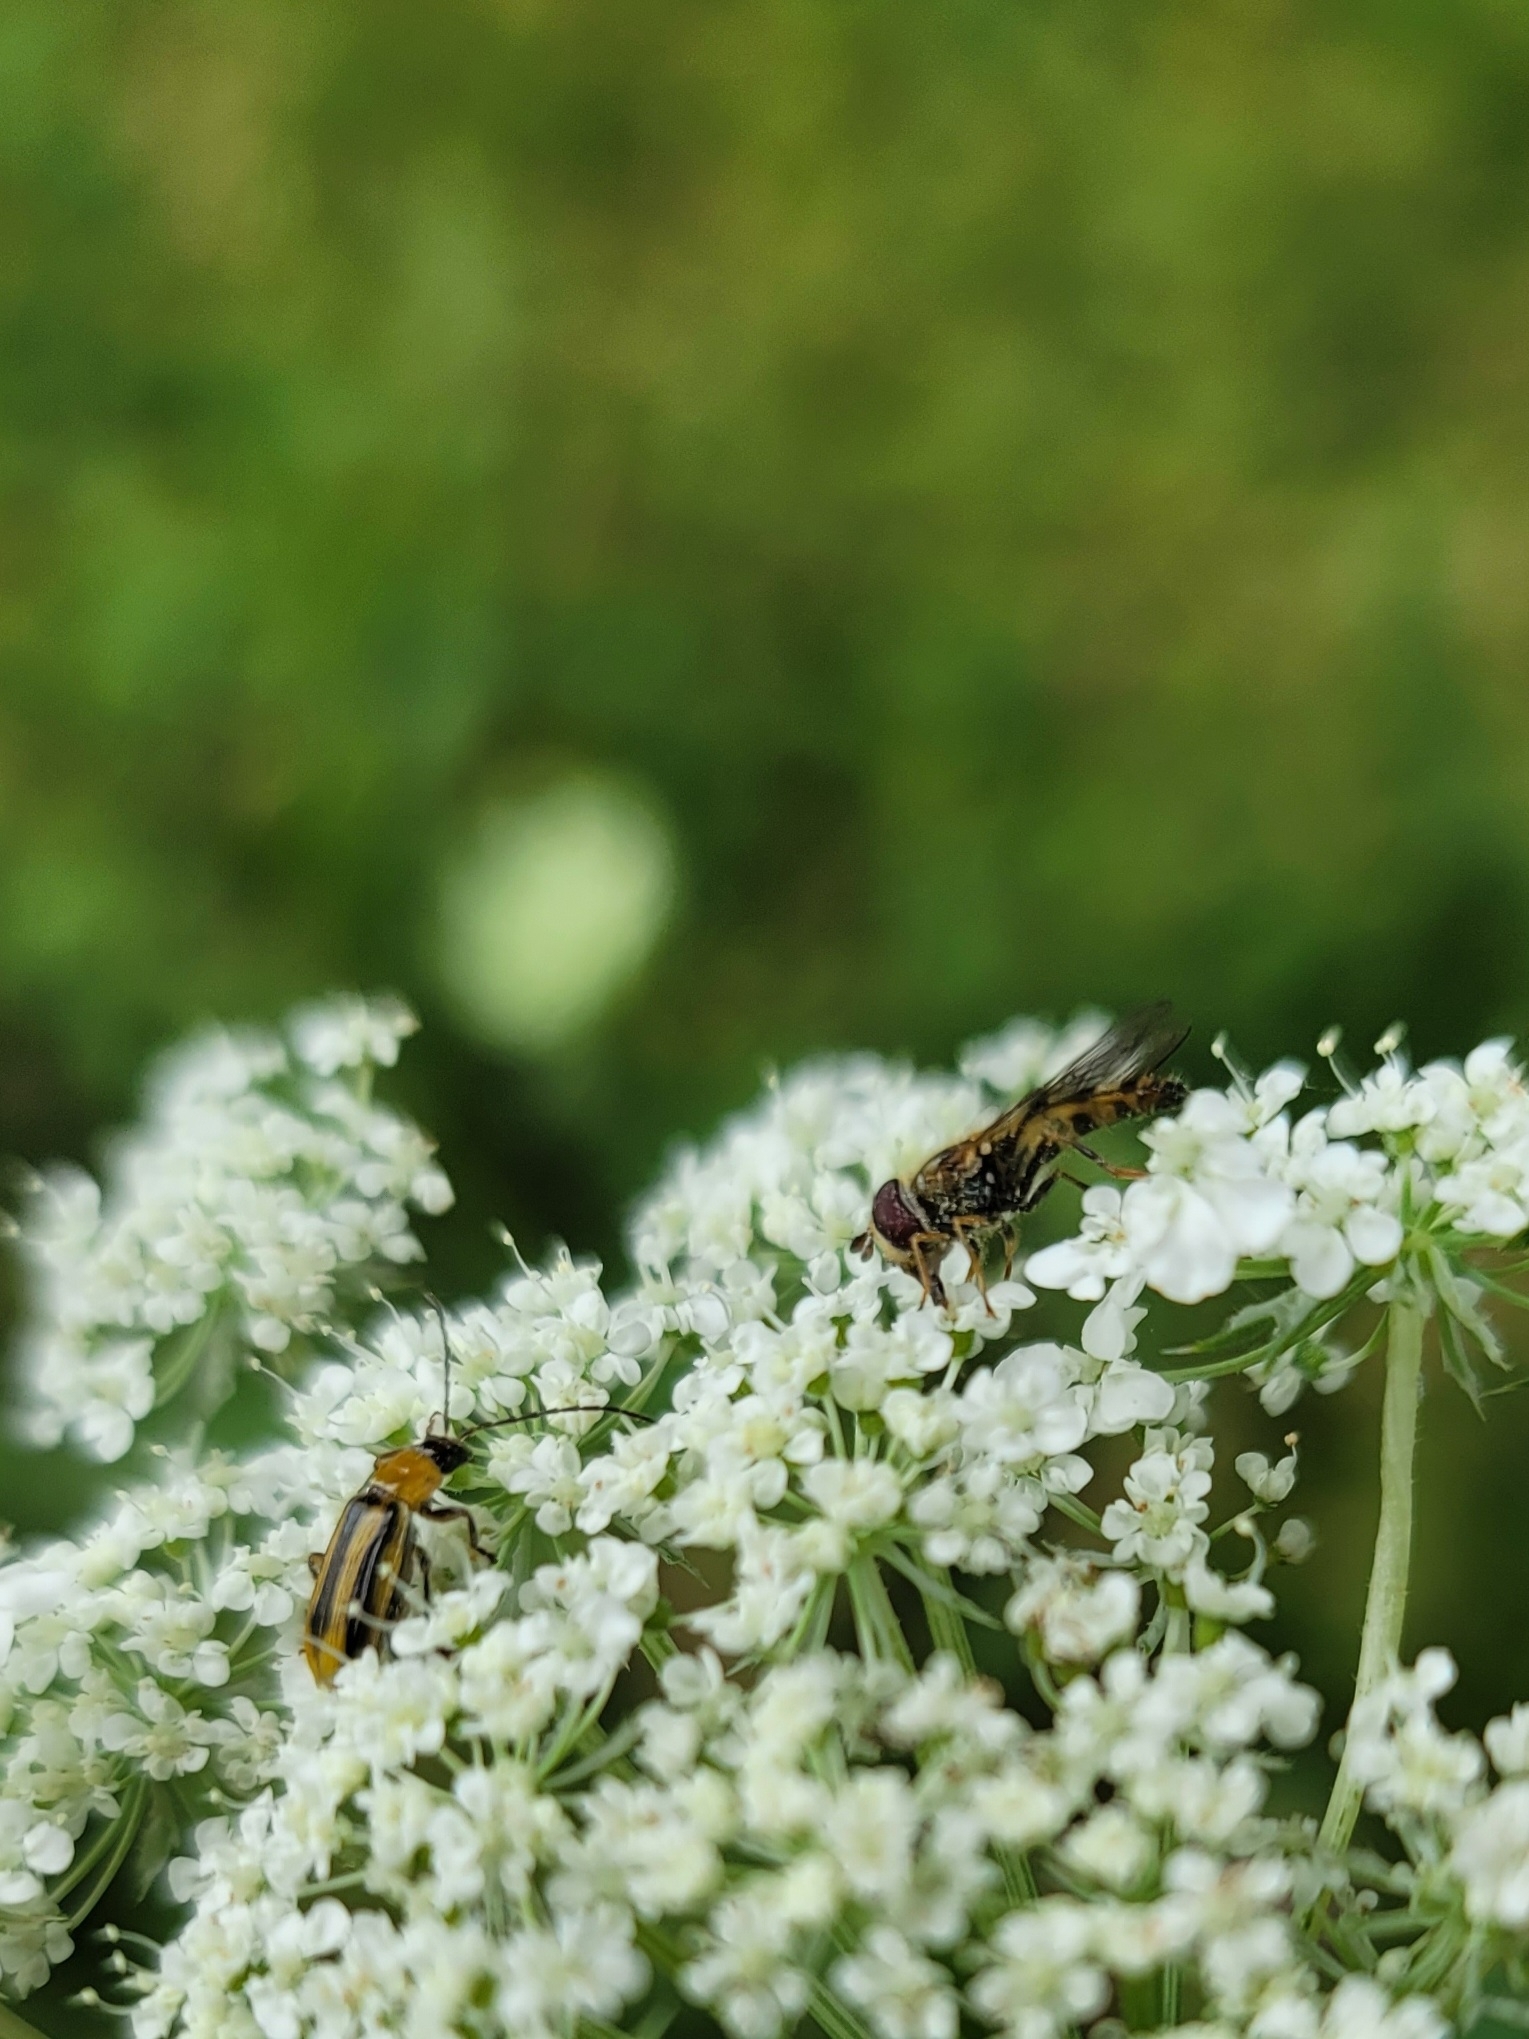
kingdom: Animalia
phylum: Arthropoda
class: Insecta
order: Coleoptera
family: Chrysomelidae
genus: Diabrotica
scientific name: Diabrotica virgifera
